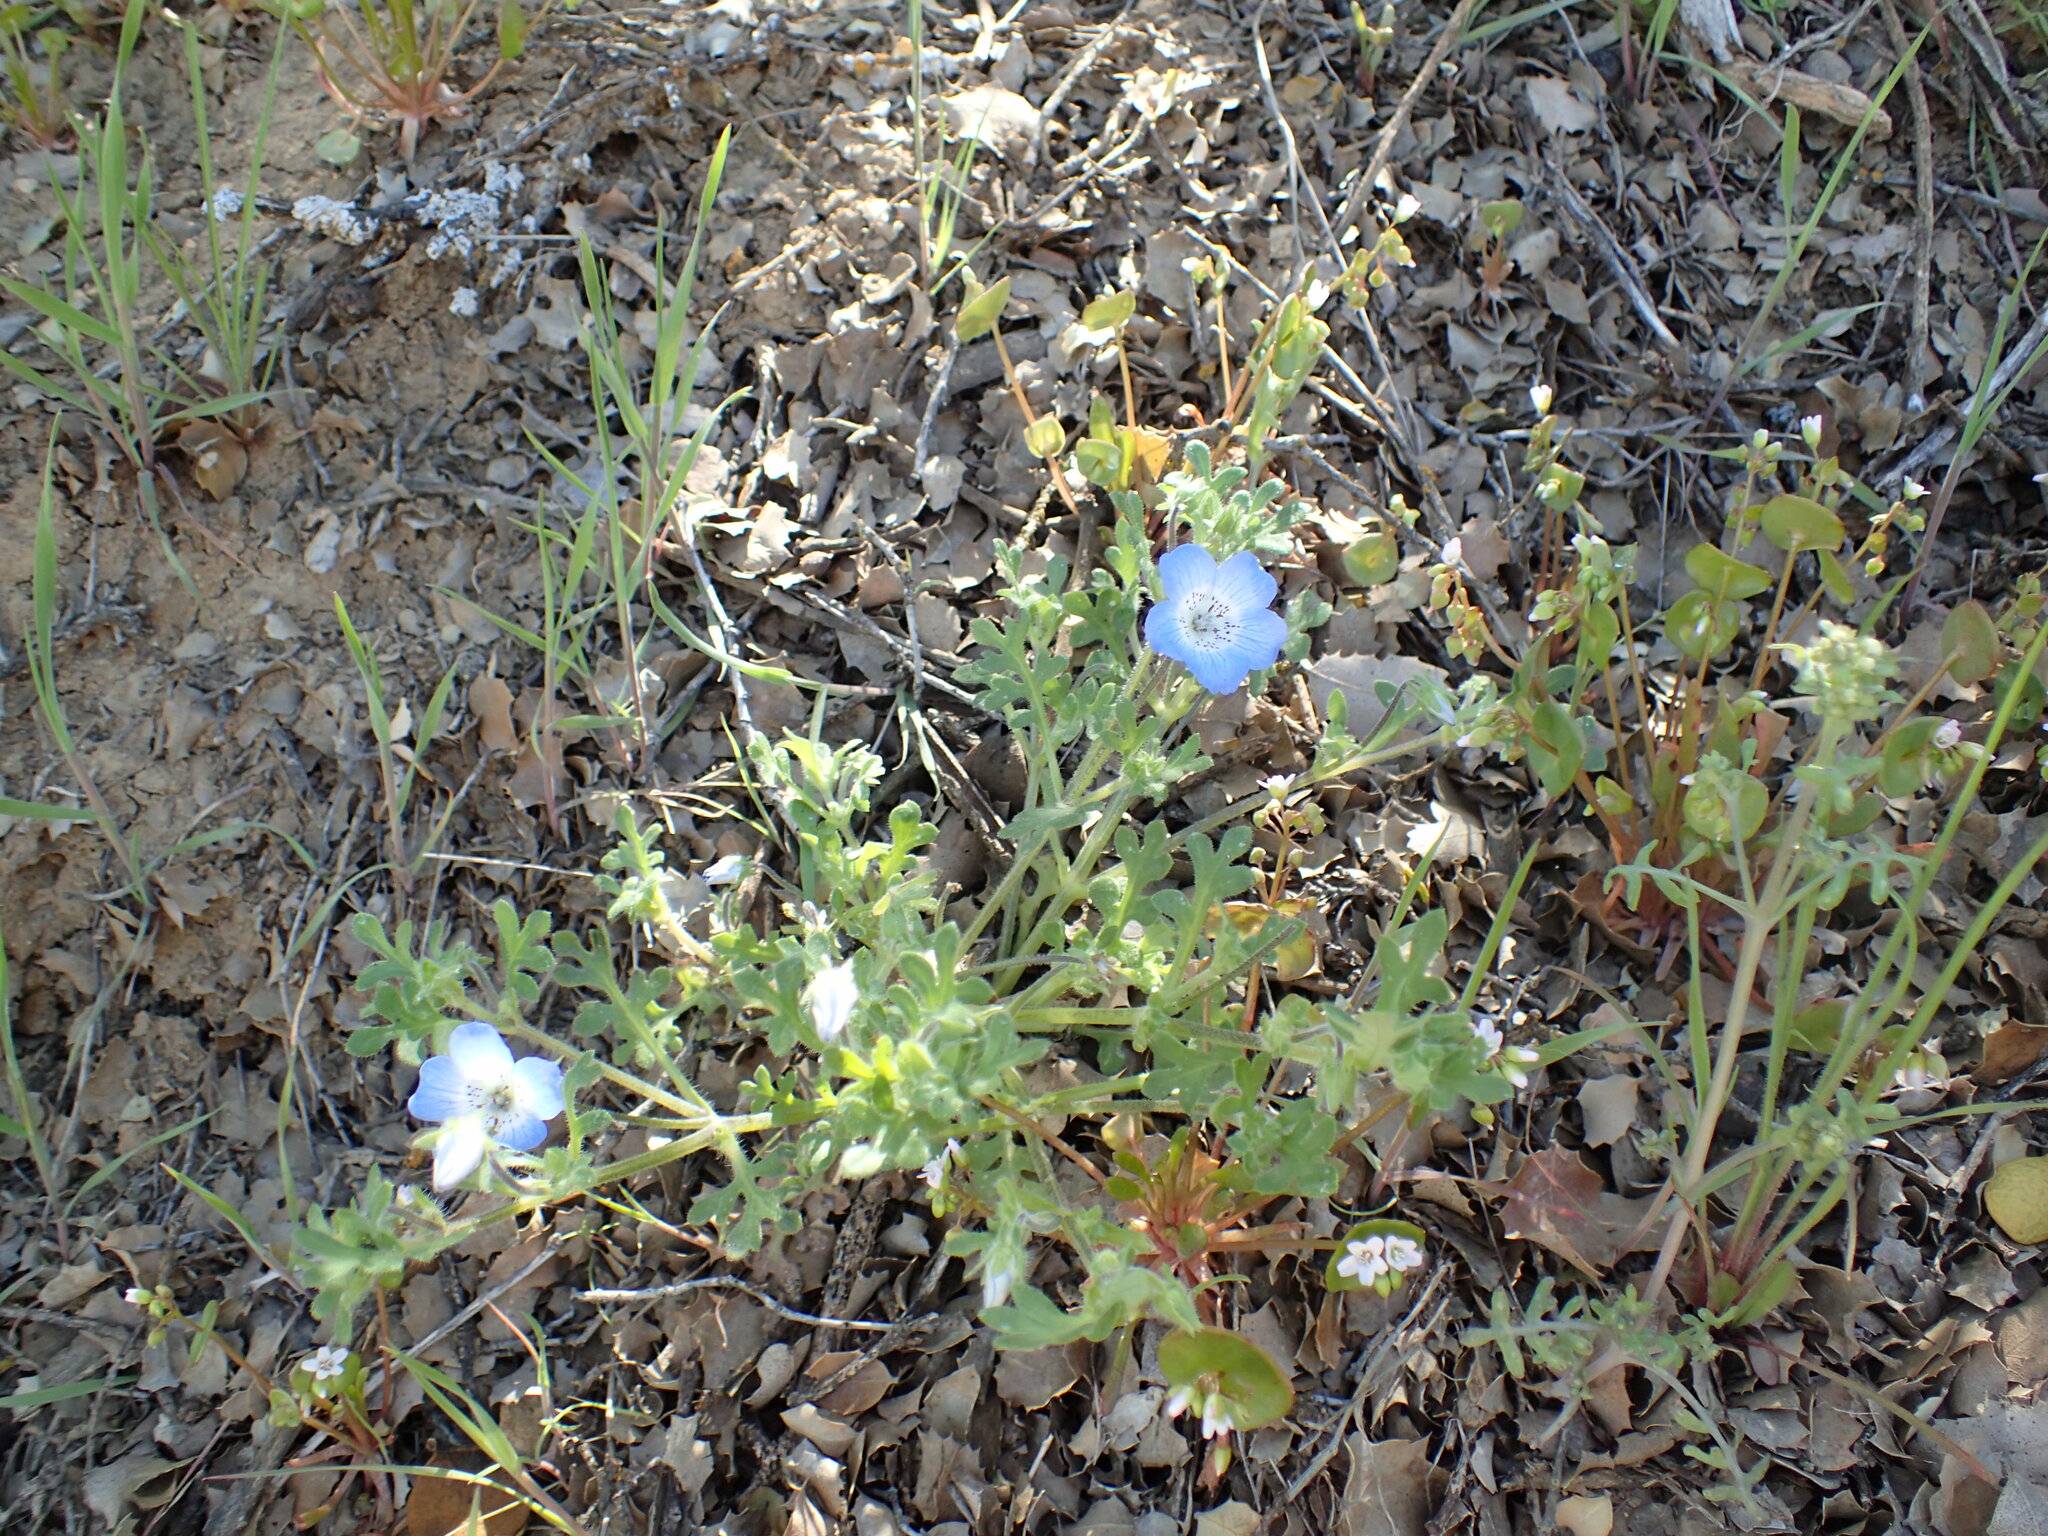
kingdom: Plantae
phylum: Tracheophyta
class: Magnoliopsida
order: Boraginales
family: Hydrophyllaceae
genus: Nemophila
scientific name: Nemophila menziesii
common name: Baby's-blue-eyes
